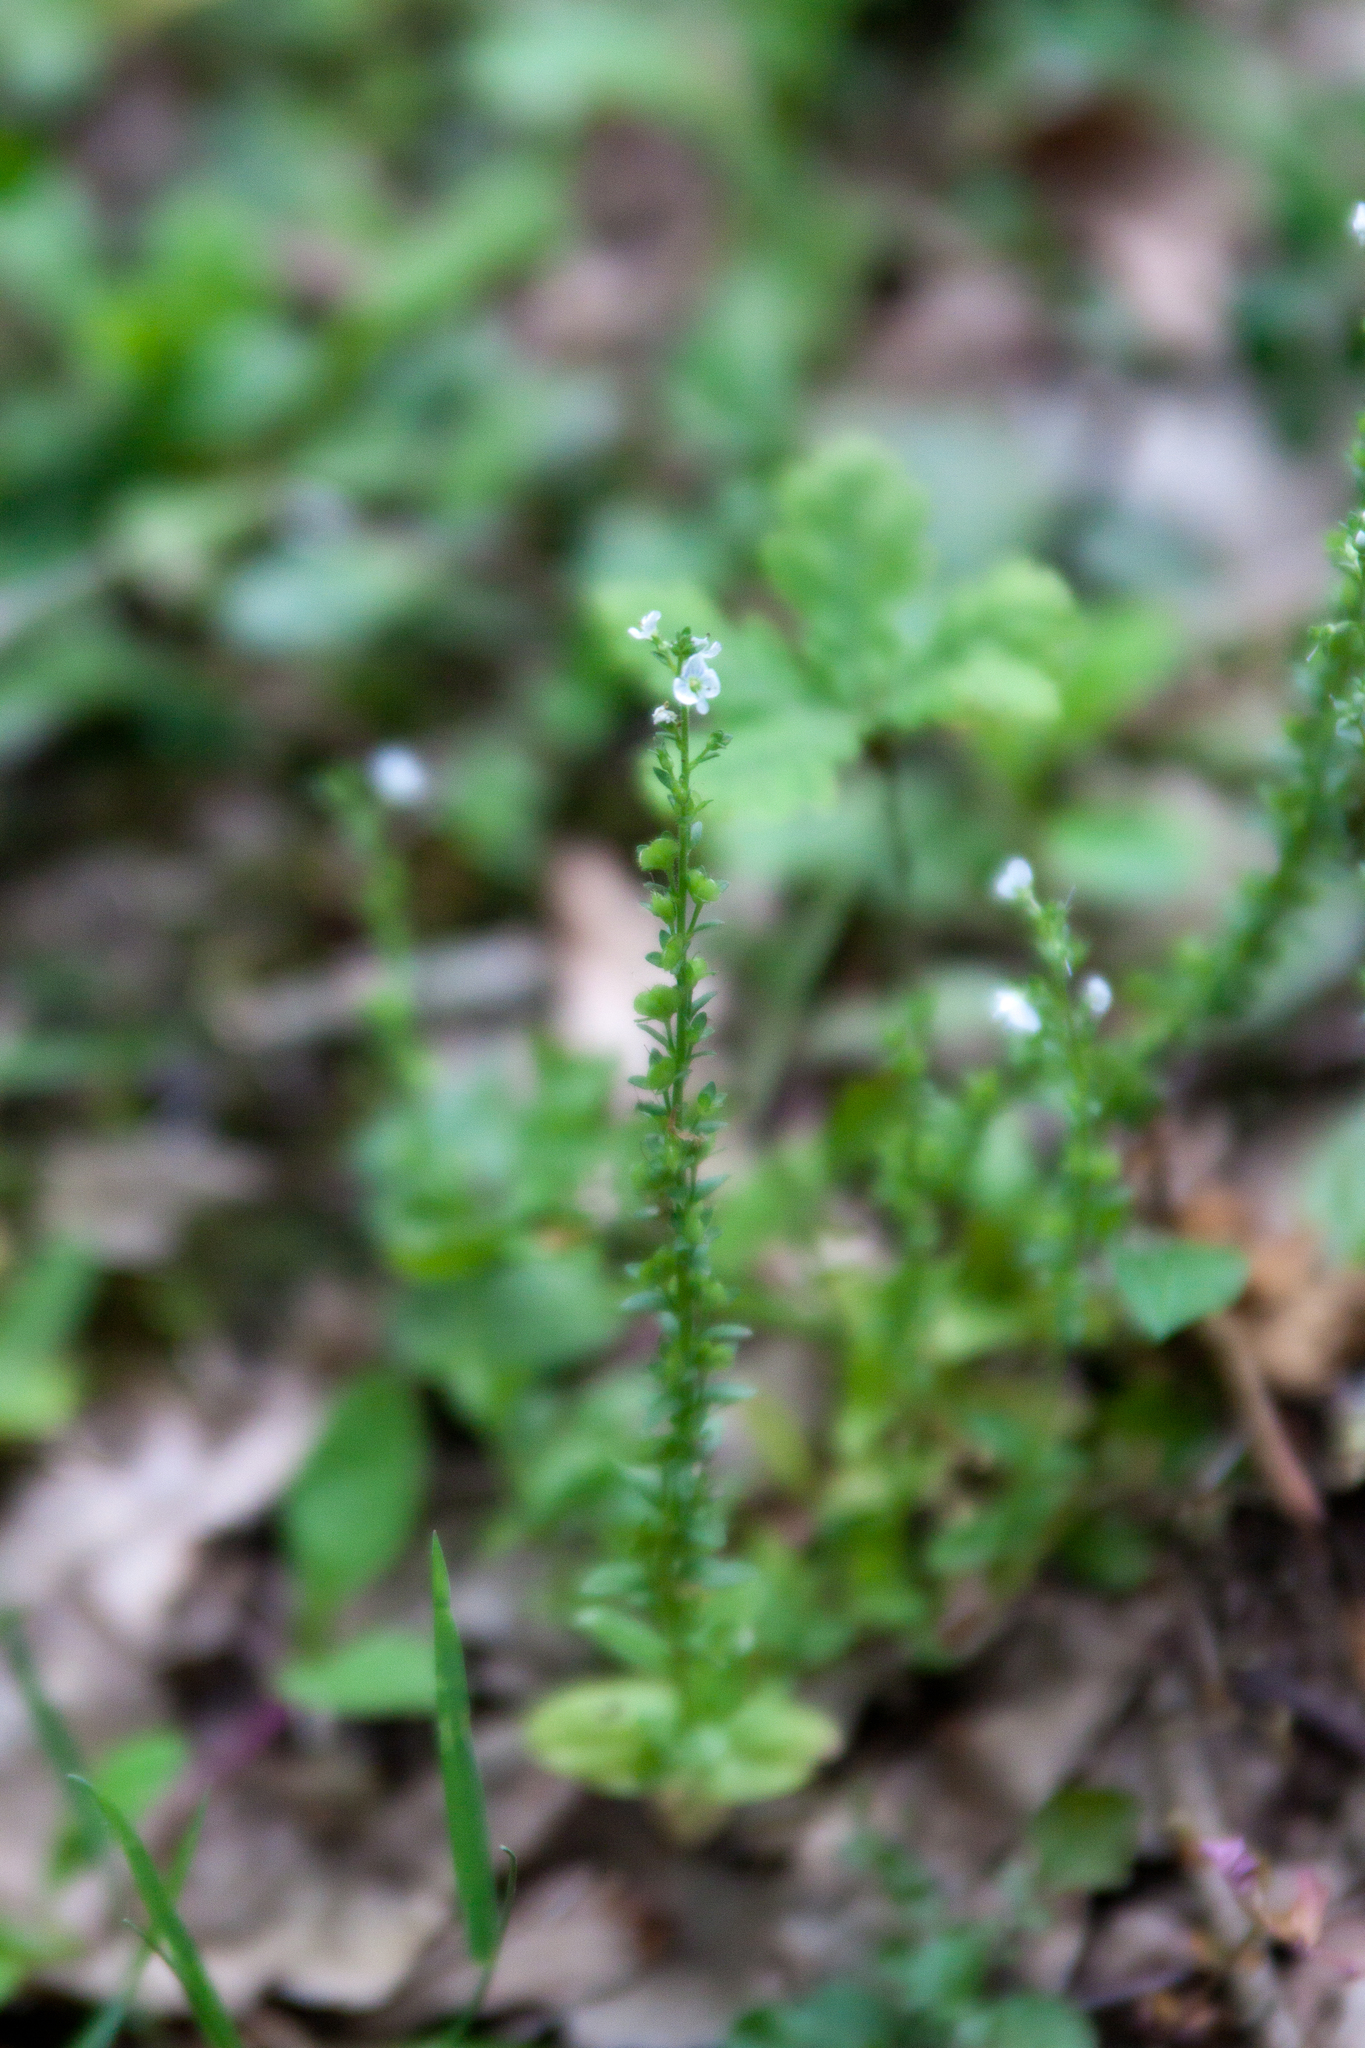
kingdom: Plantae
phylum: Tracheophyta
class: Magnoliopsida
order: Lamiales
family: Plantaginaceae
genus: Veronica
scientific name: Veronica serpyllifolia
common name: Thyme-leaved speedwell
